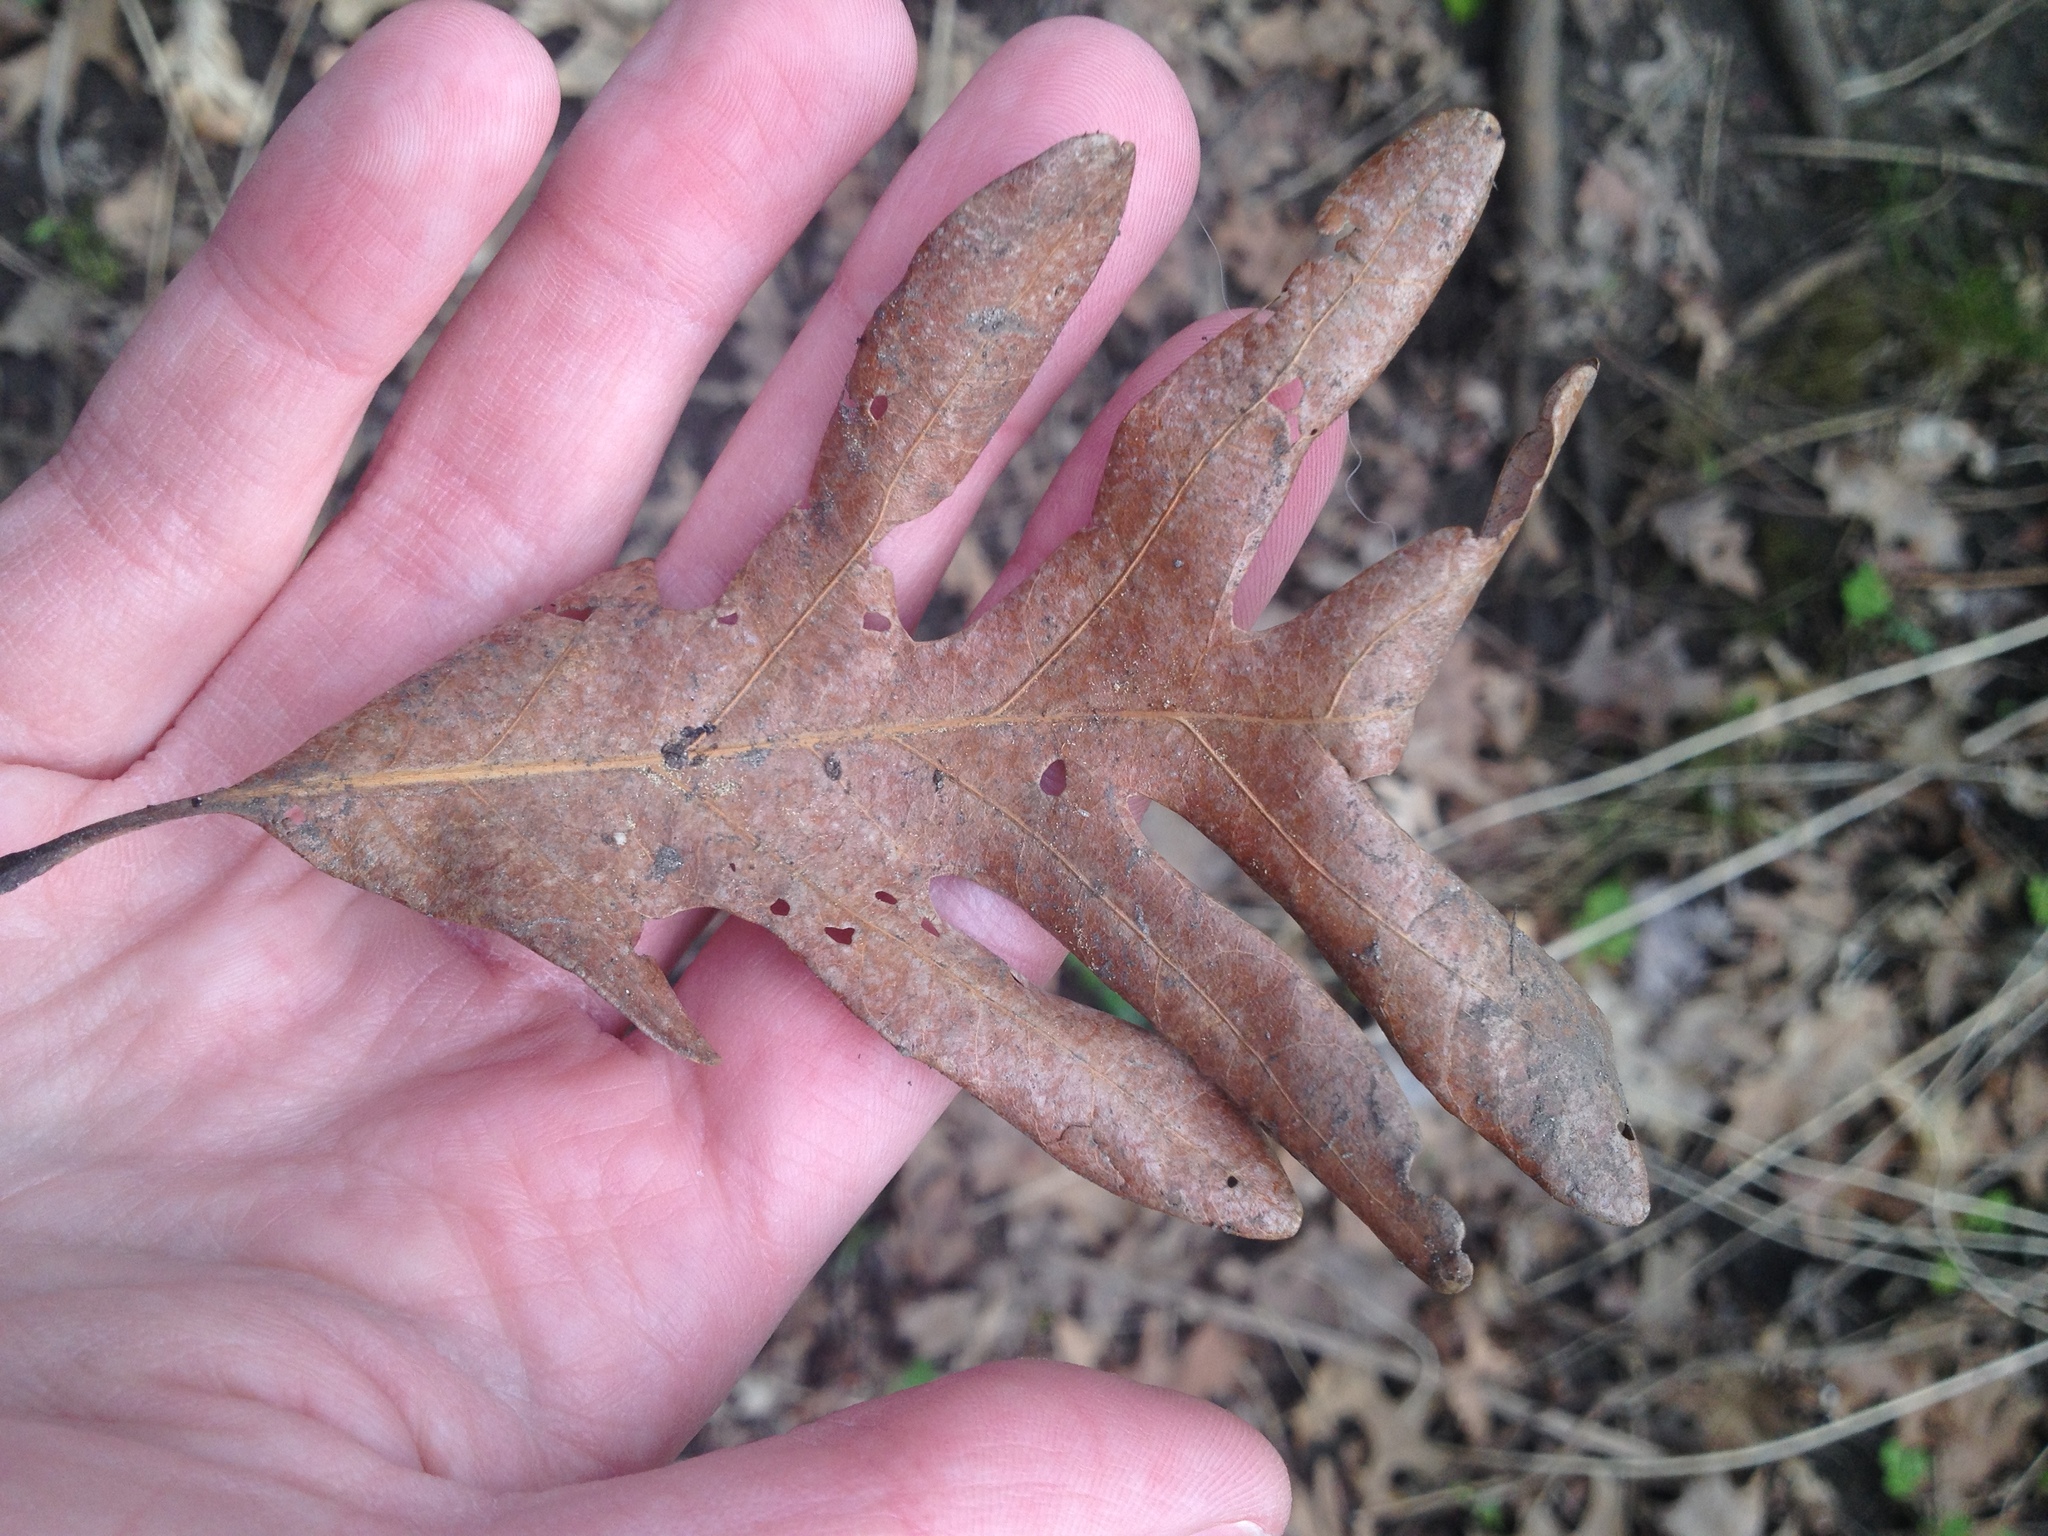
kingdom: Plantae
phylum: Tracheophyta
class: Magnoliopsida
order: Fagales
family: Fagaceae
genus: Quercus
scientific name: Quercus alba
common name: White oak
